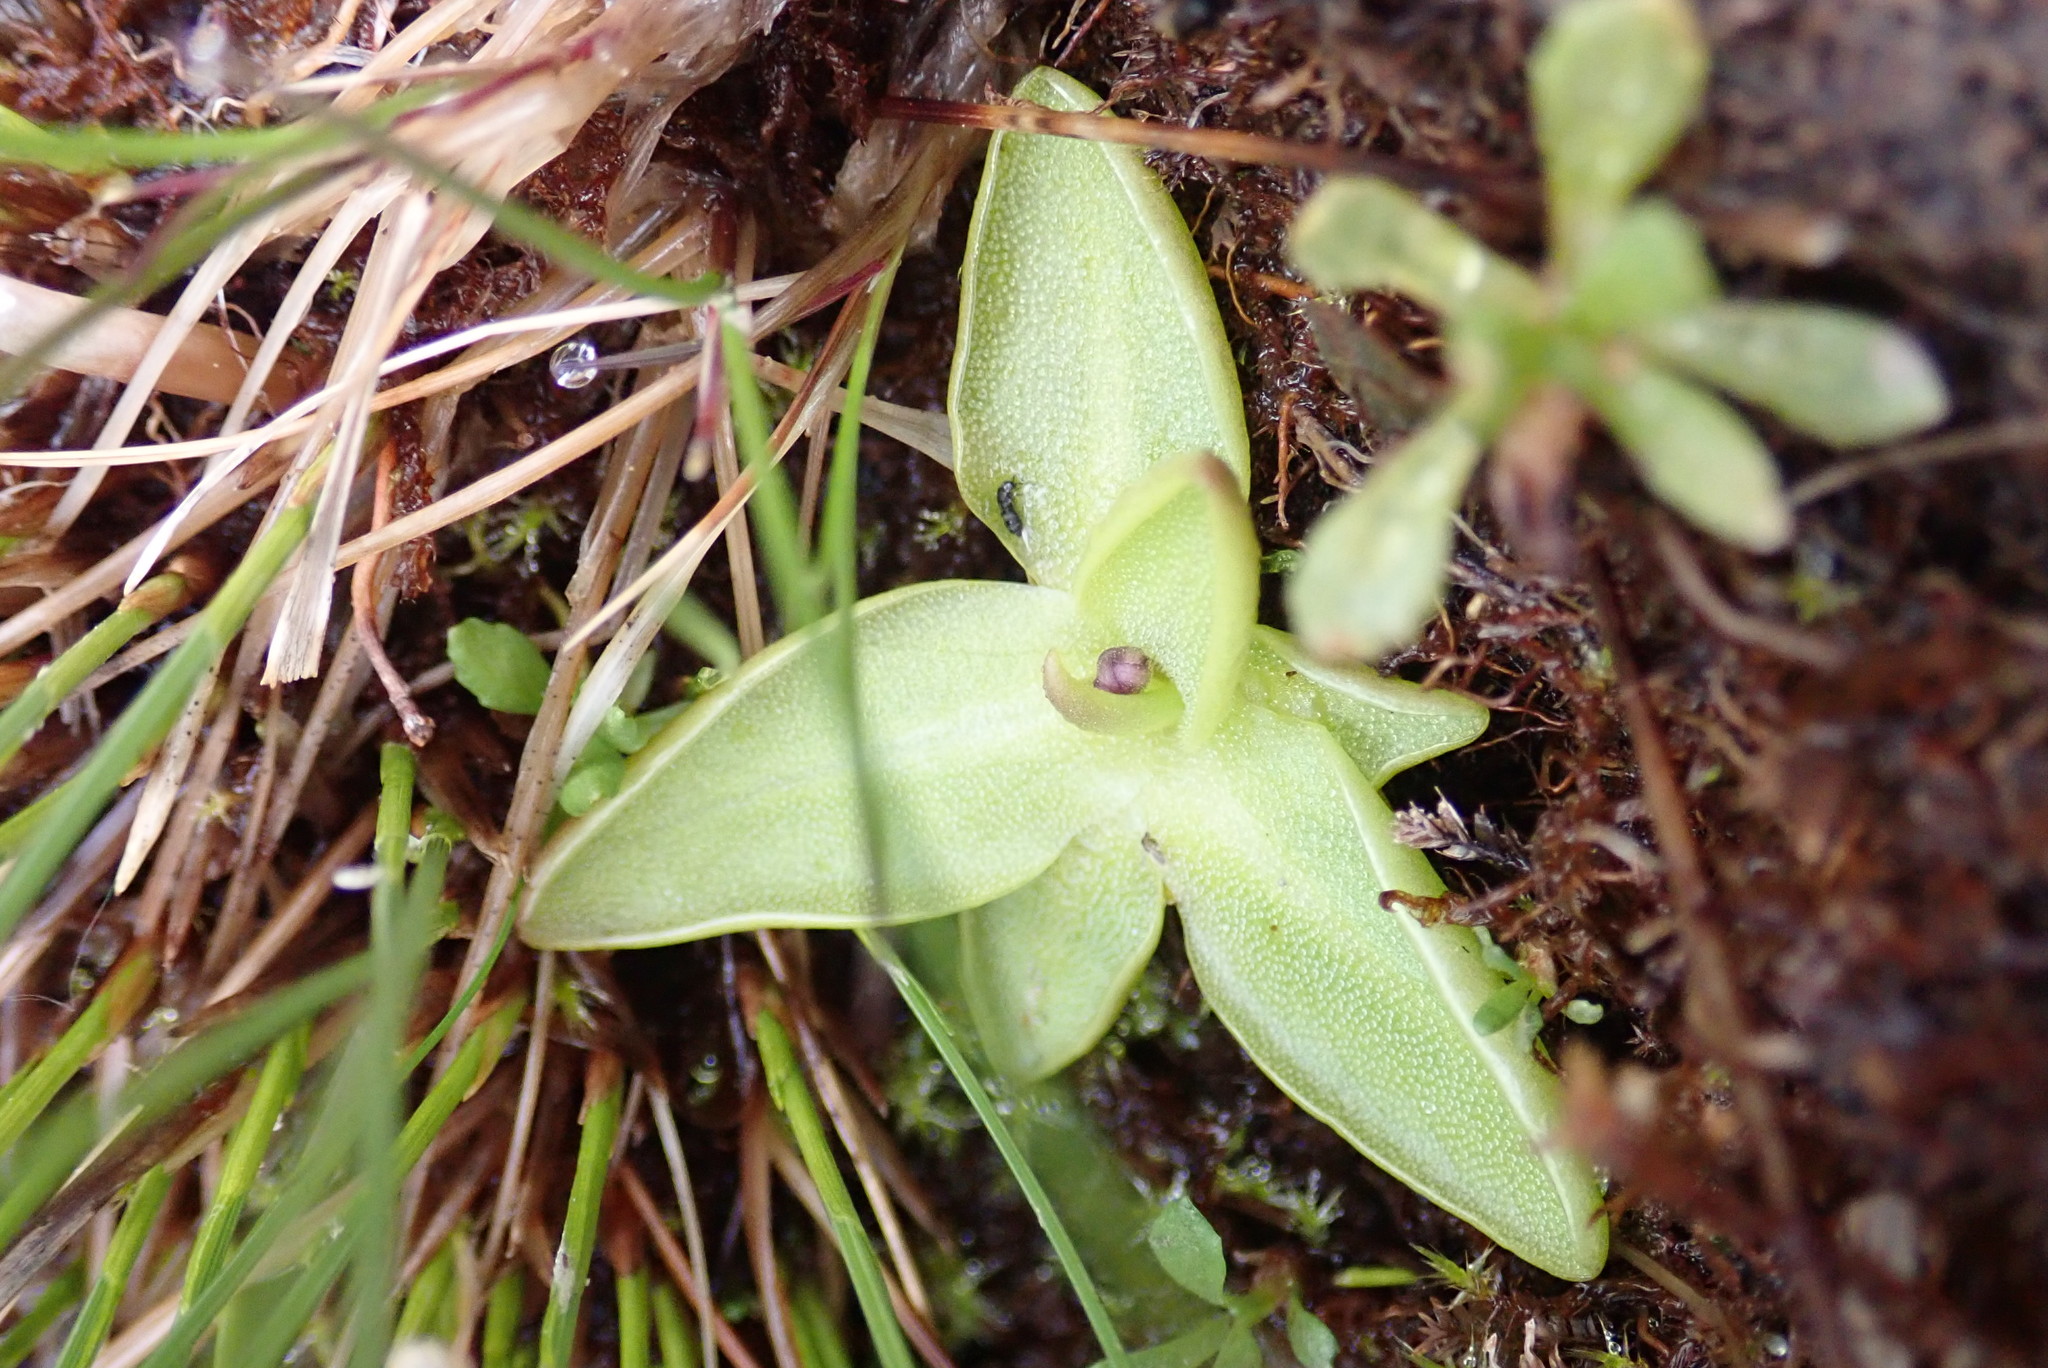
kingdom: Plantae
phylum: Tracheophyta
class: Magnoliopsida
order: Lamiales
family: Lentibulariaceae
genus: Pinguicula
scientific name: Pinguicula vulgaris
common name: Common butterwort
